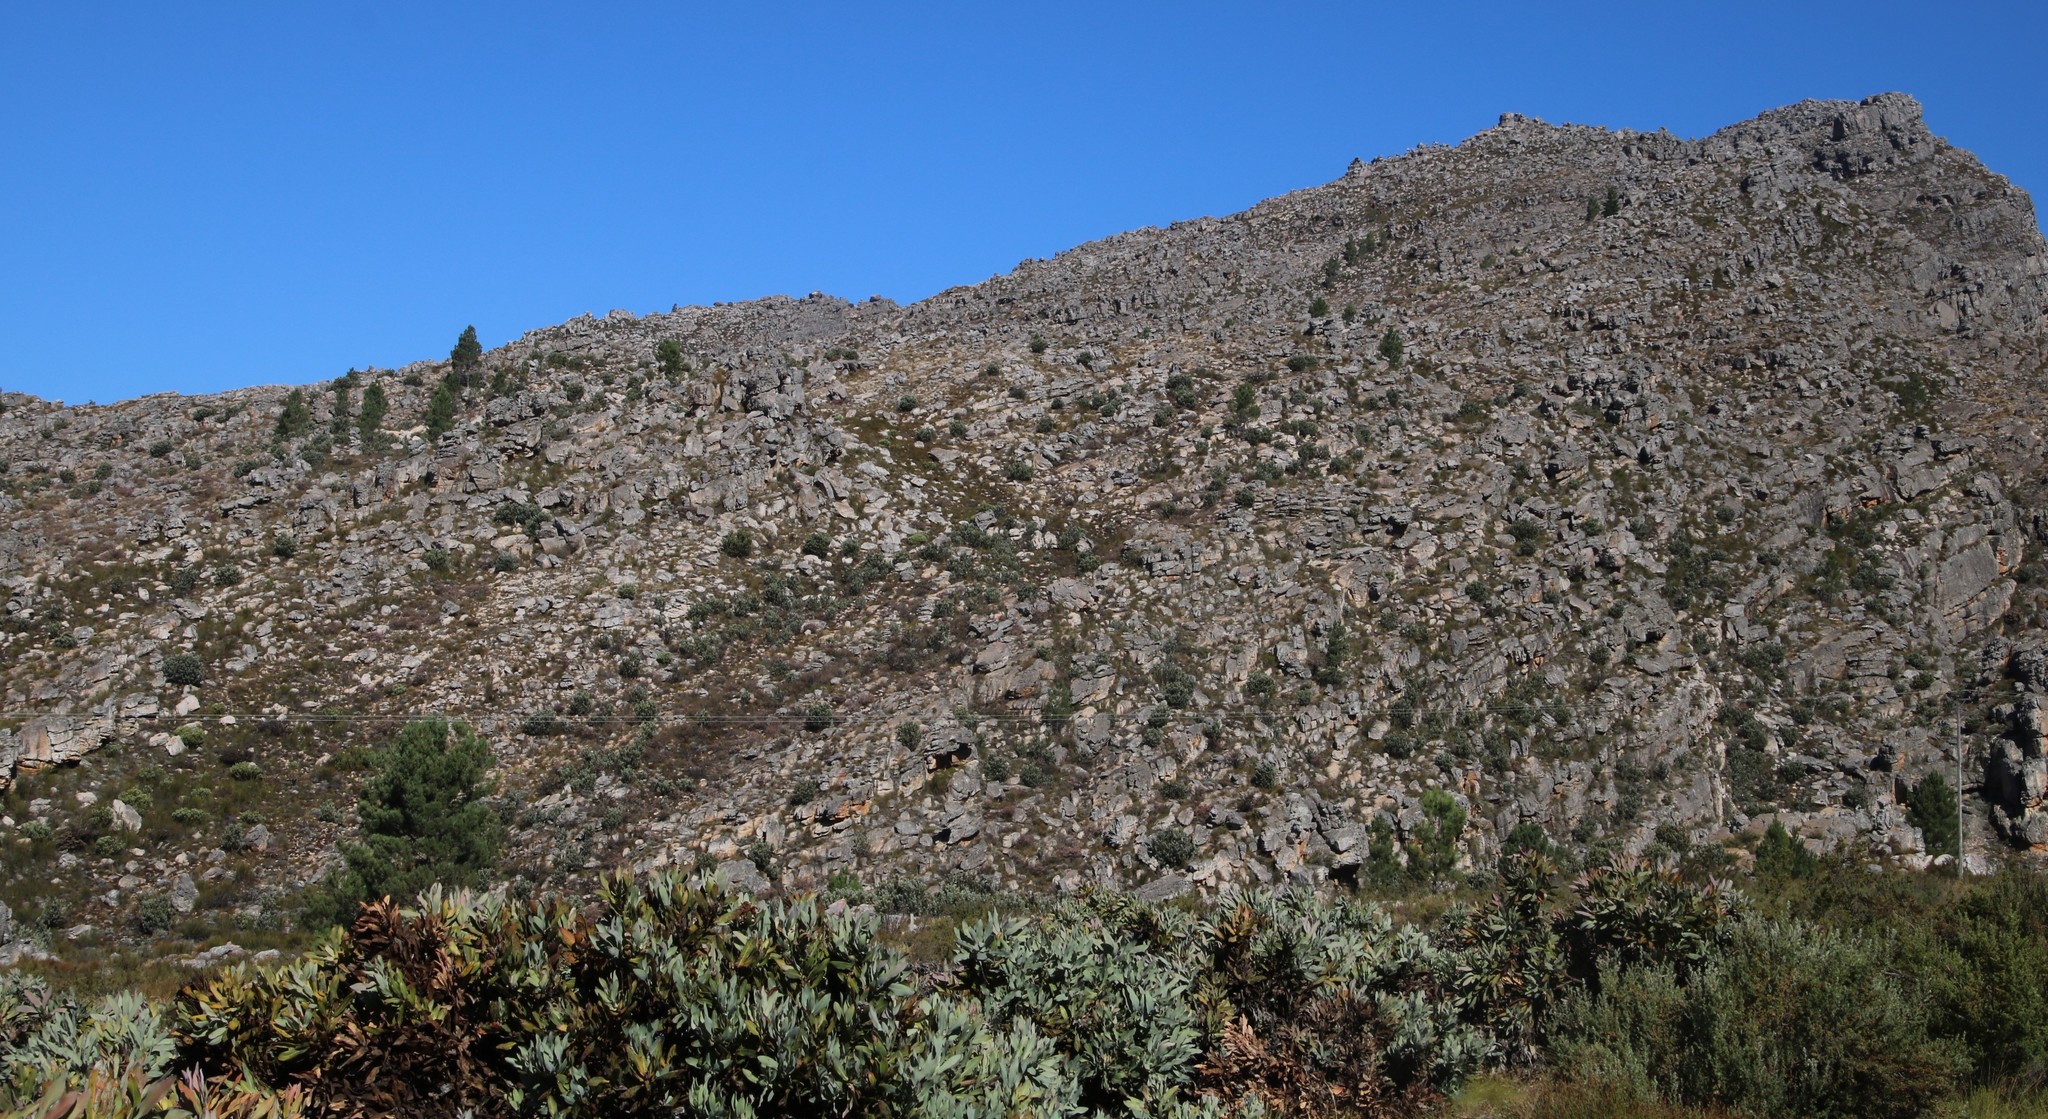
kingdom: Plantae
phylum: Tracheophyta
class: Pinopsida
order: Pinales
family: Pinaceae
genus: Pinus
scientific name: Pinus pinaster
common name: Maritime pine
